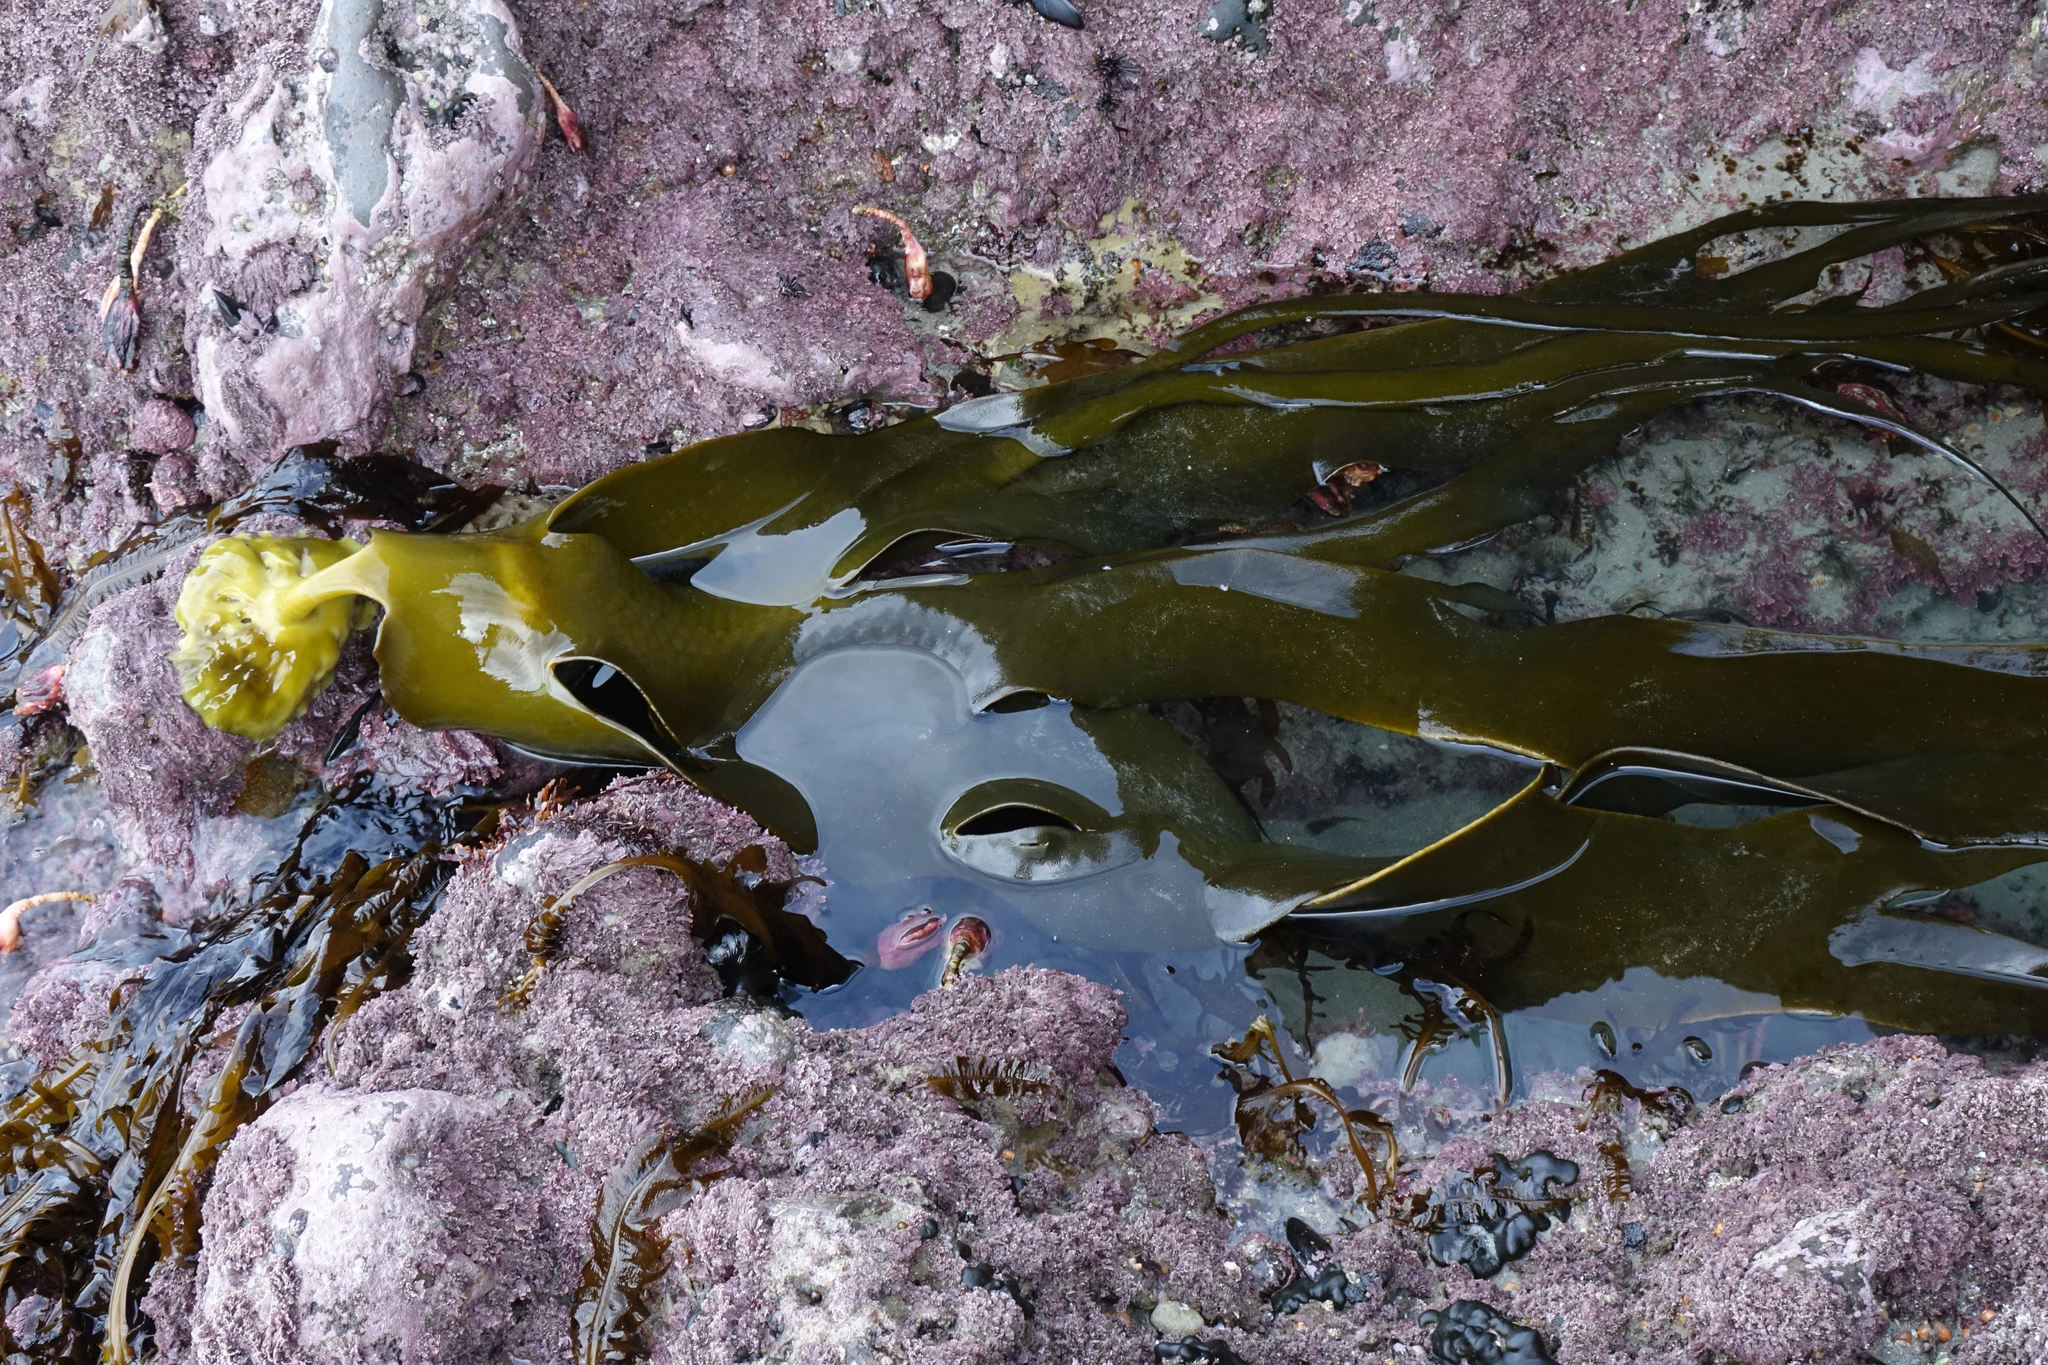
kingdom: Chromista
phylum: Ochrophyta
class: Phaeophyceae
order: Fucales
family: Durvillaeaceae
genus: Durvillaea
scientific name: Durvillaea antarctica
